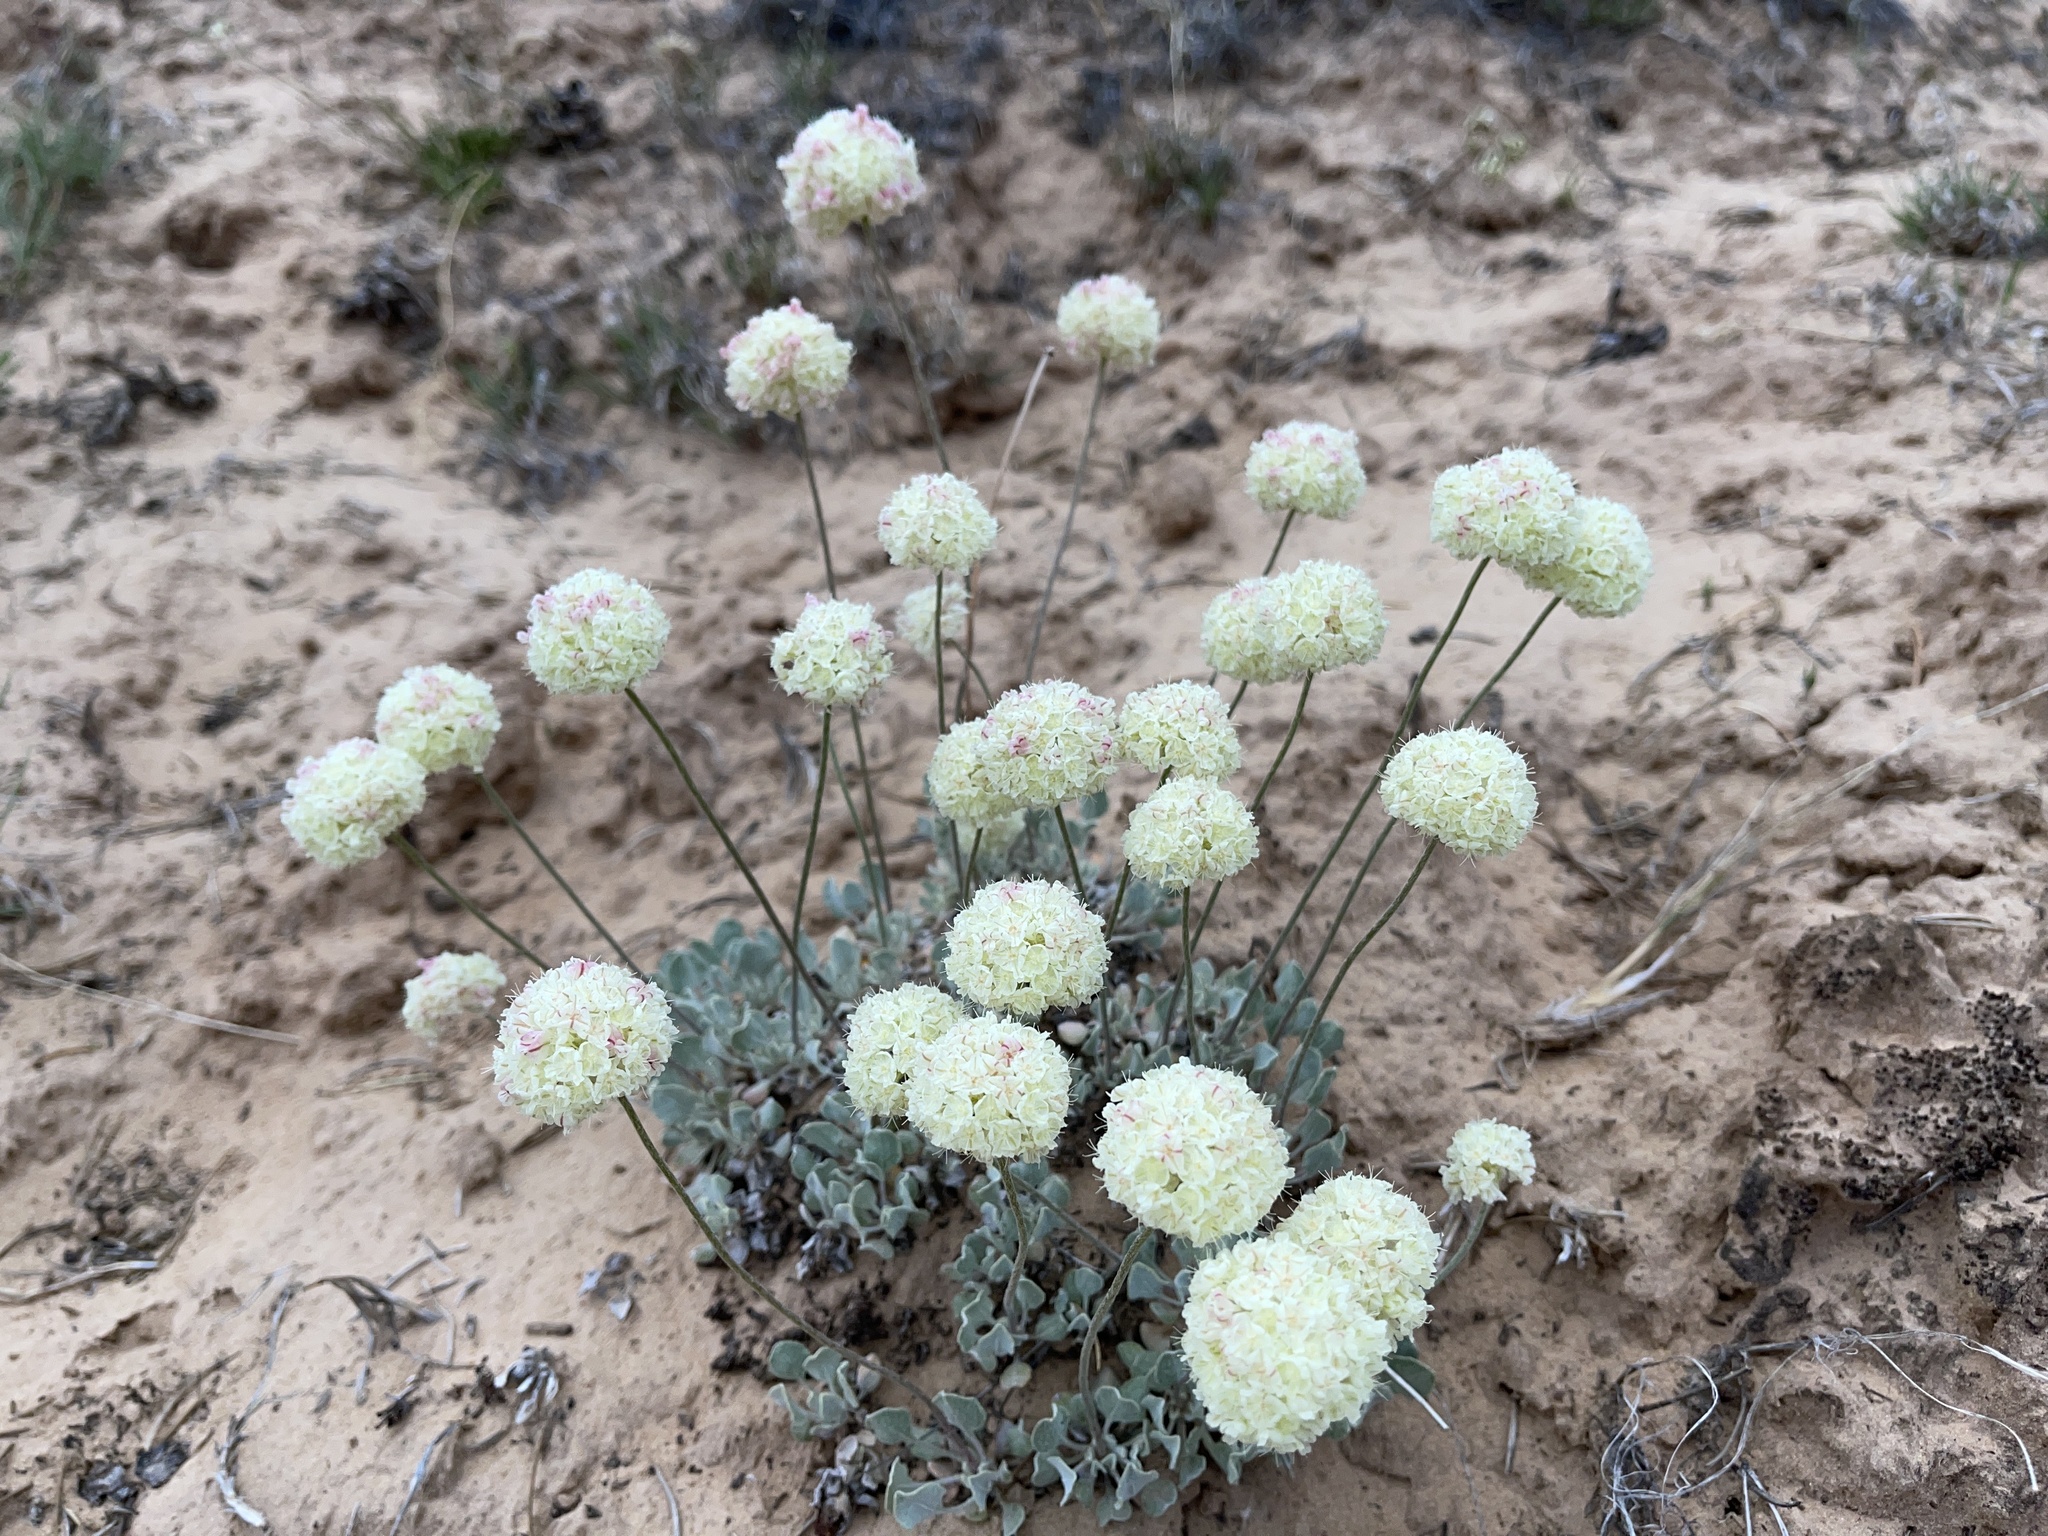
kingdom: Plantae
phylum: Tracheophyta
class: Magnoliopsida
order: Caryophyllales
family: Polygonaceae
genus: Eriogonum
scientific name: Eriogonum ovalifolium
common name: Cushion buckwheat
